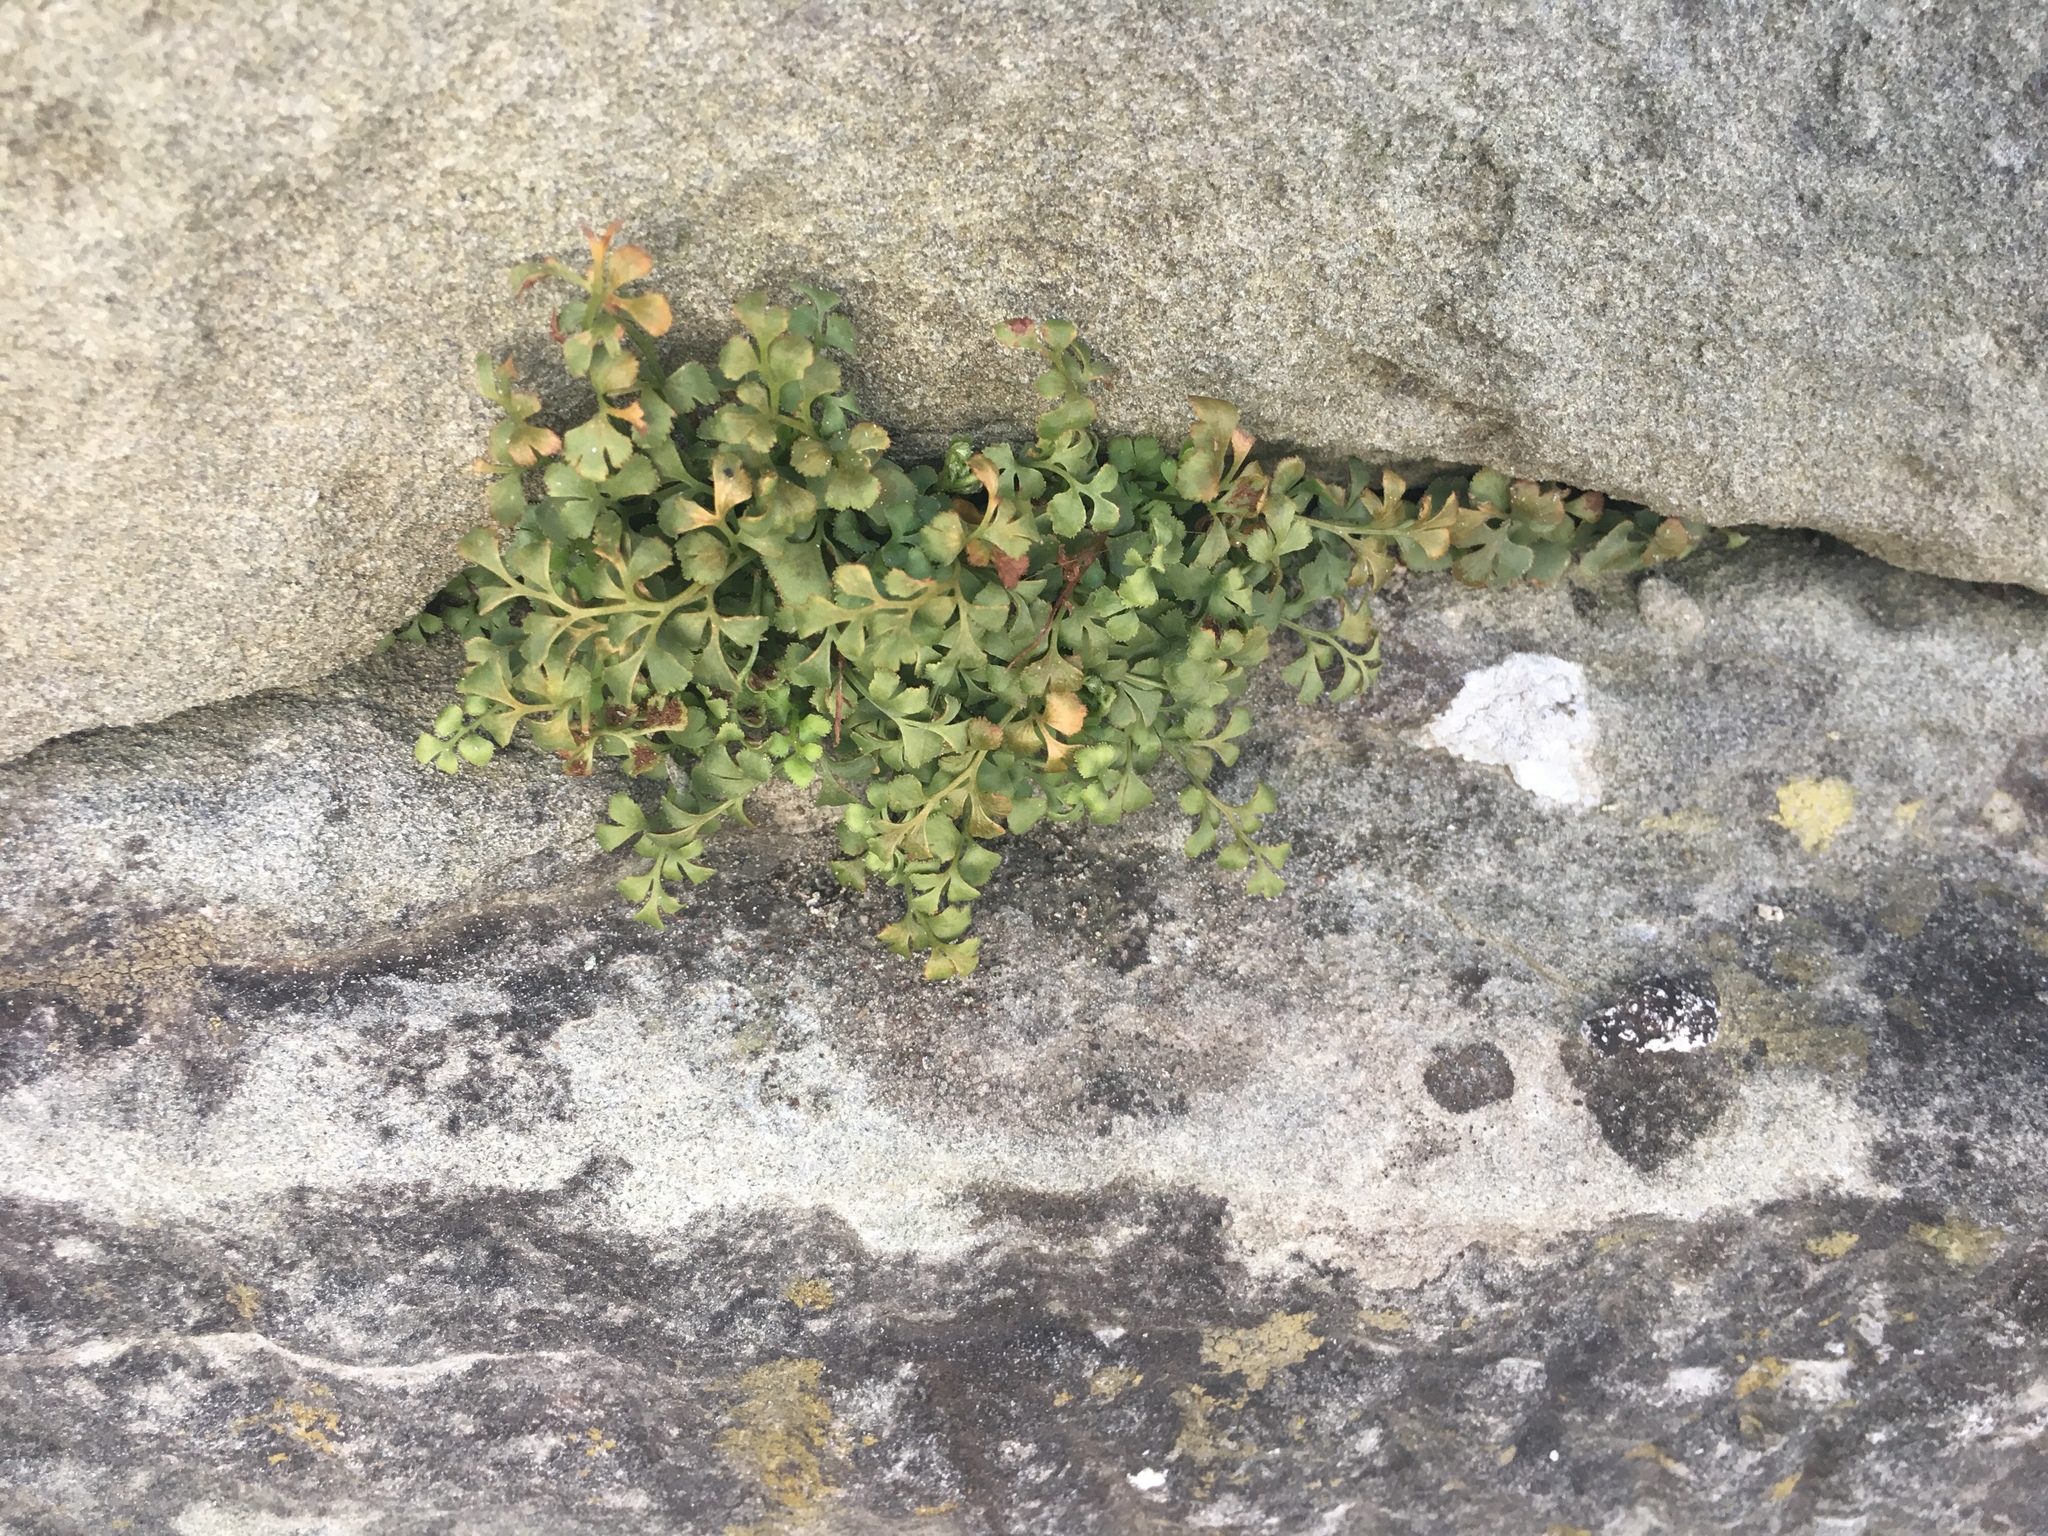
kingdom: Plantae
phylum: Tracheophyta
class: Polypodiopsida
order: Polypodiales
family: Aspleniaceae
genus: Asplenium
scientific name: Asplenium ruta-muraria
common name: Wall-rue
